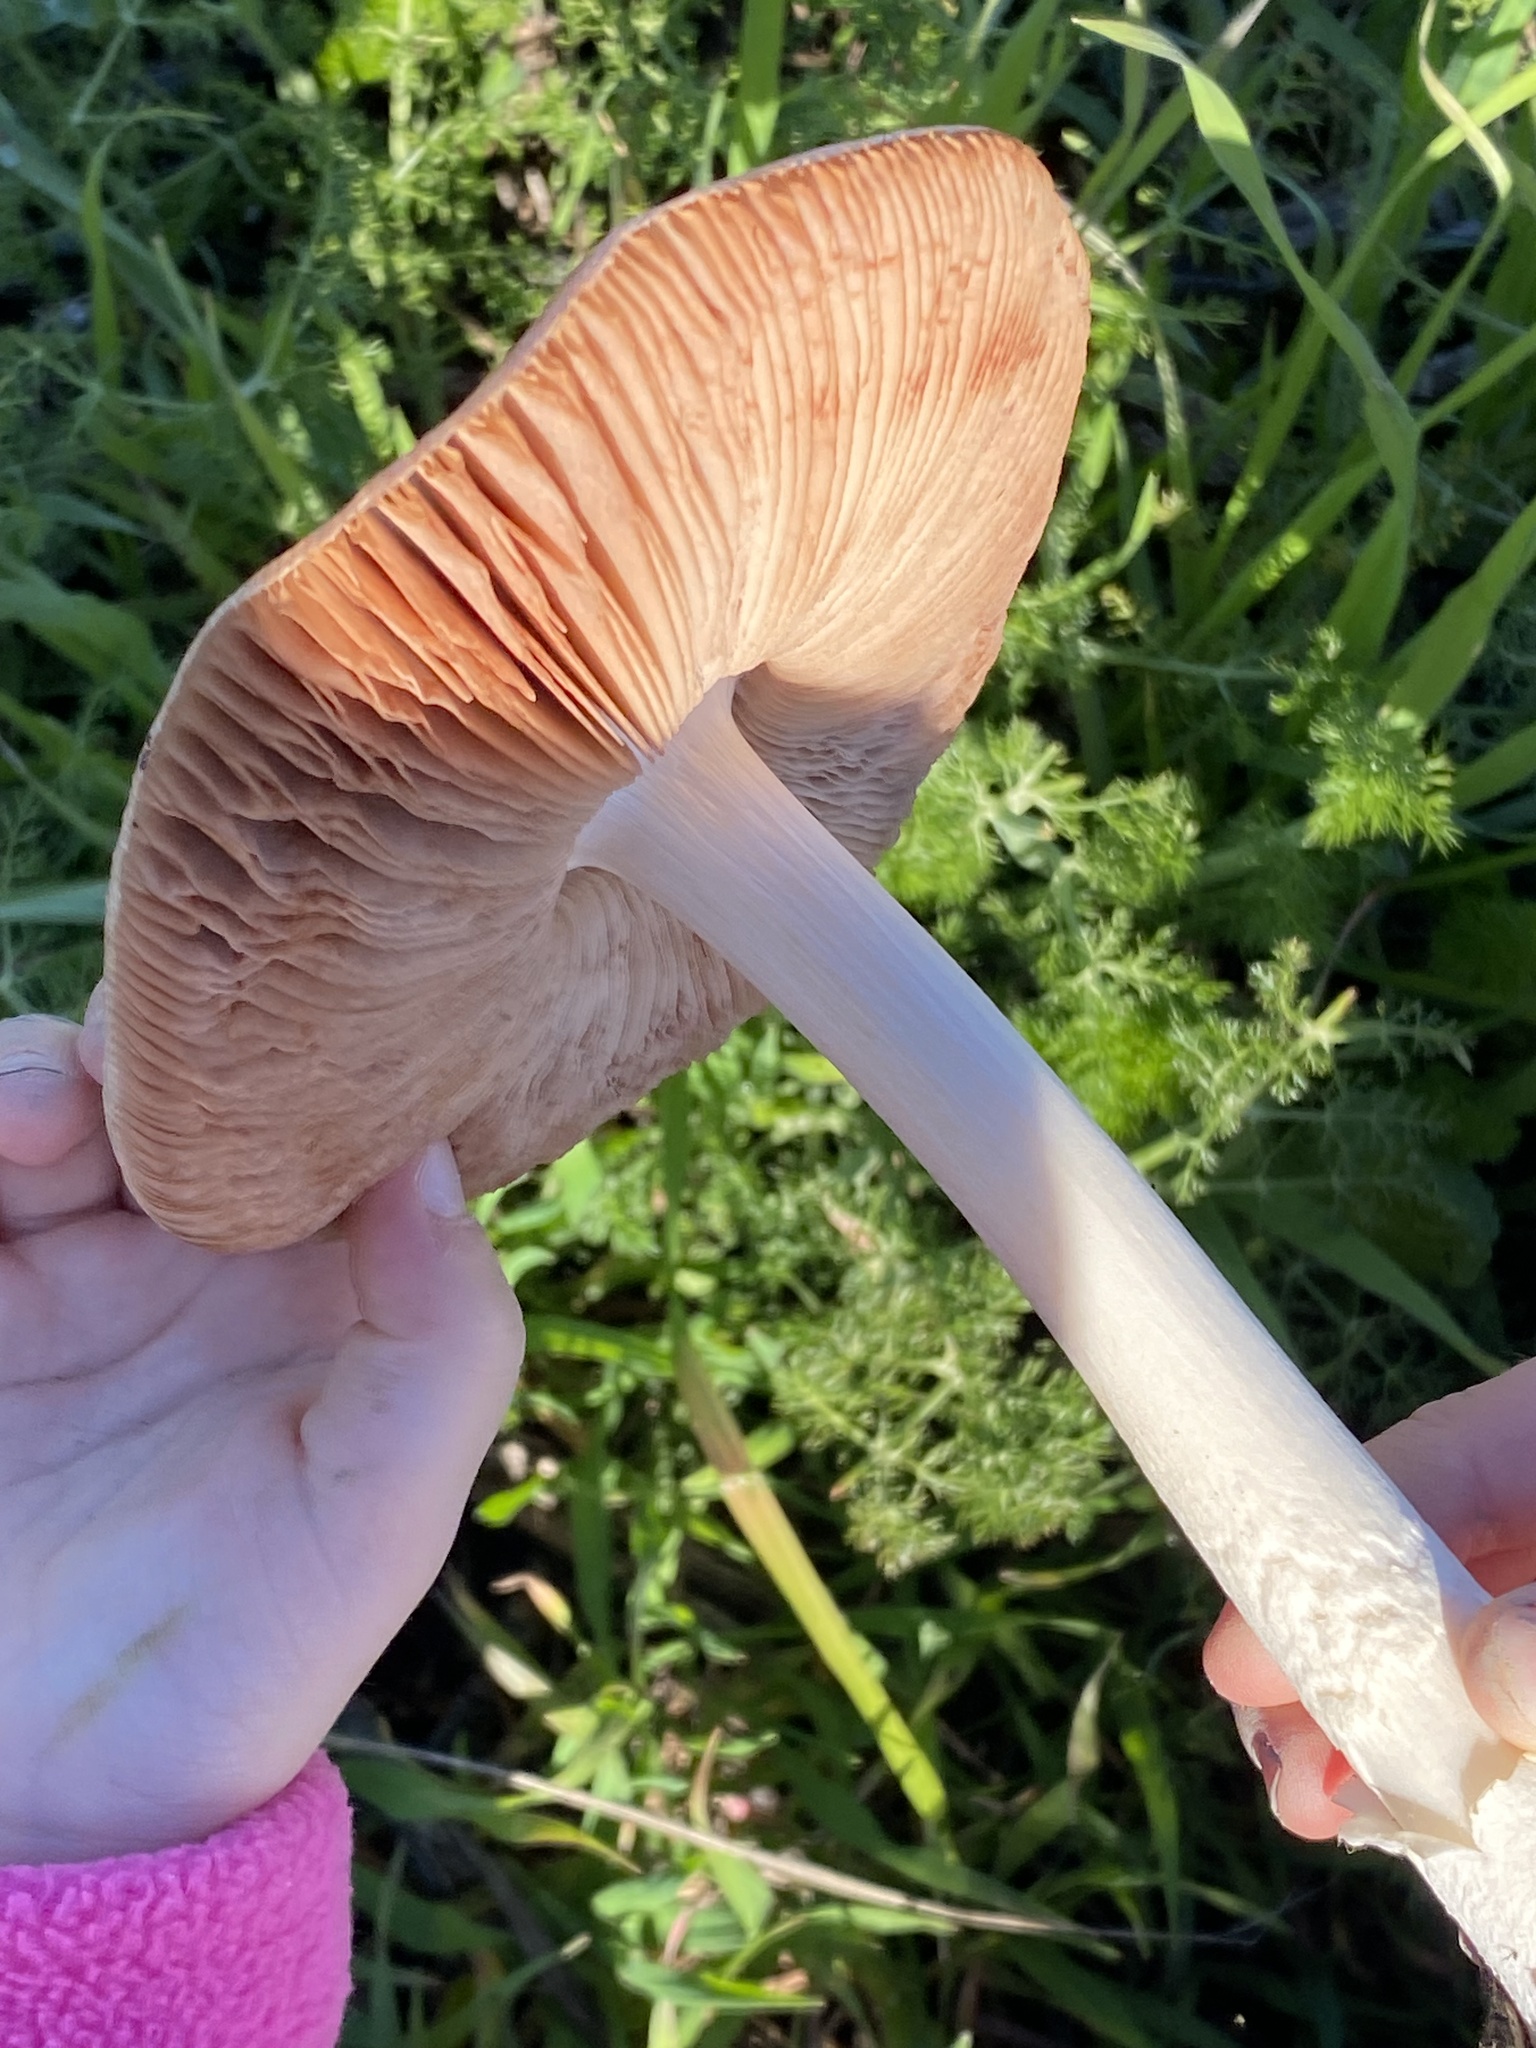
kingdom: Fungi
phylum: Basidiomycota
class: Agaricomycetes
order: Agaricales
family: Pluteaceae
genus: Volvopluteus
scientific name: Volvopluteus gloiocephalus
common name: Stubble rosegill
